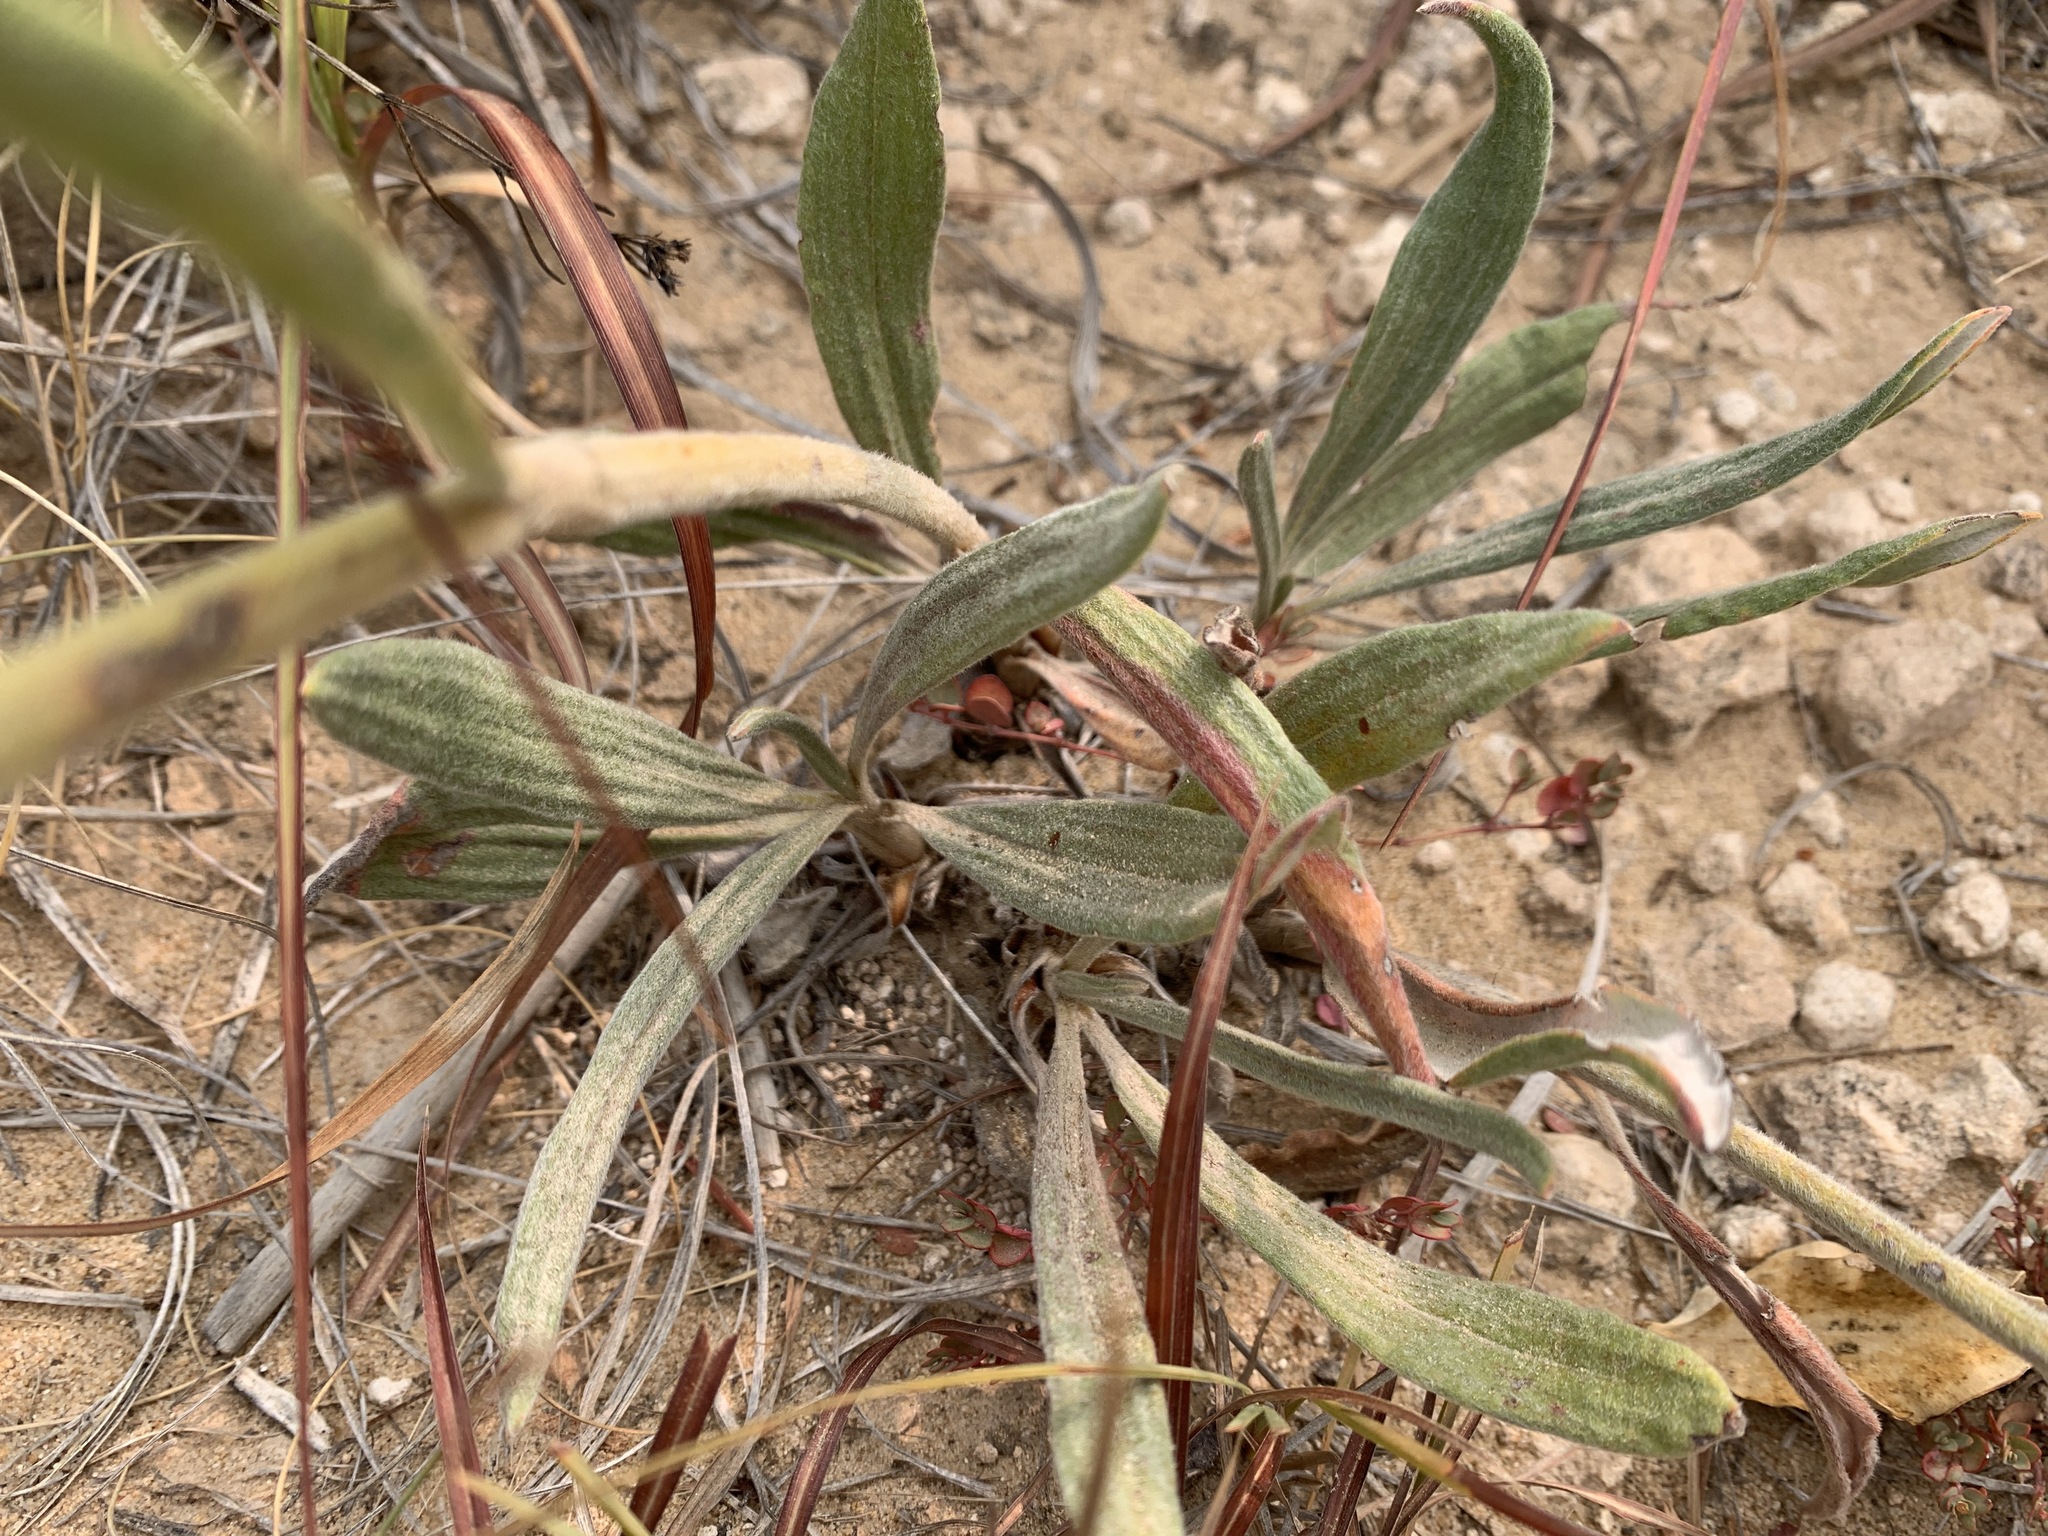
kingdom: Plantae
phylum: Tracheophyta
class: Magnoliopsida
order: Caryophyllales
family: Polygonaceae
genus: Eriogonum
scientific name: Eriogonum longifolium
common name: Longleaf wild buckwheat
